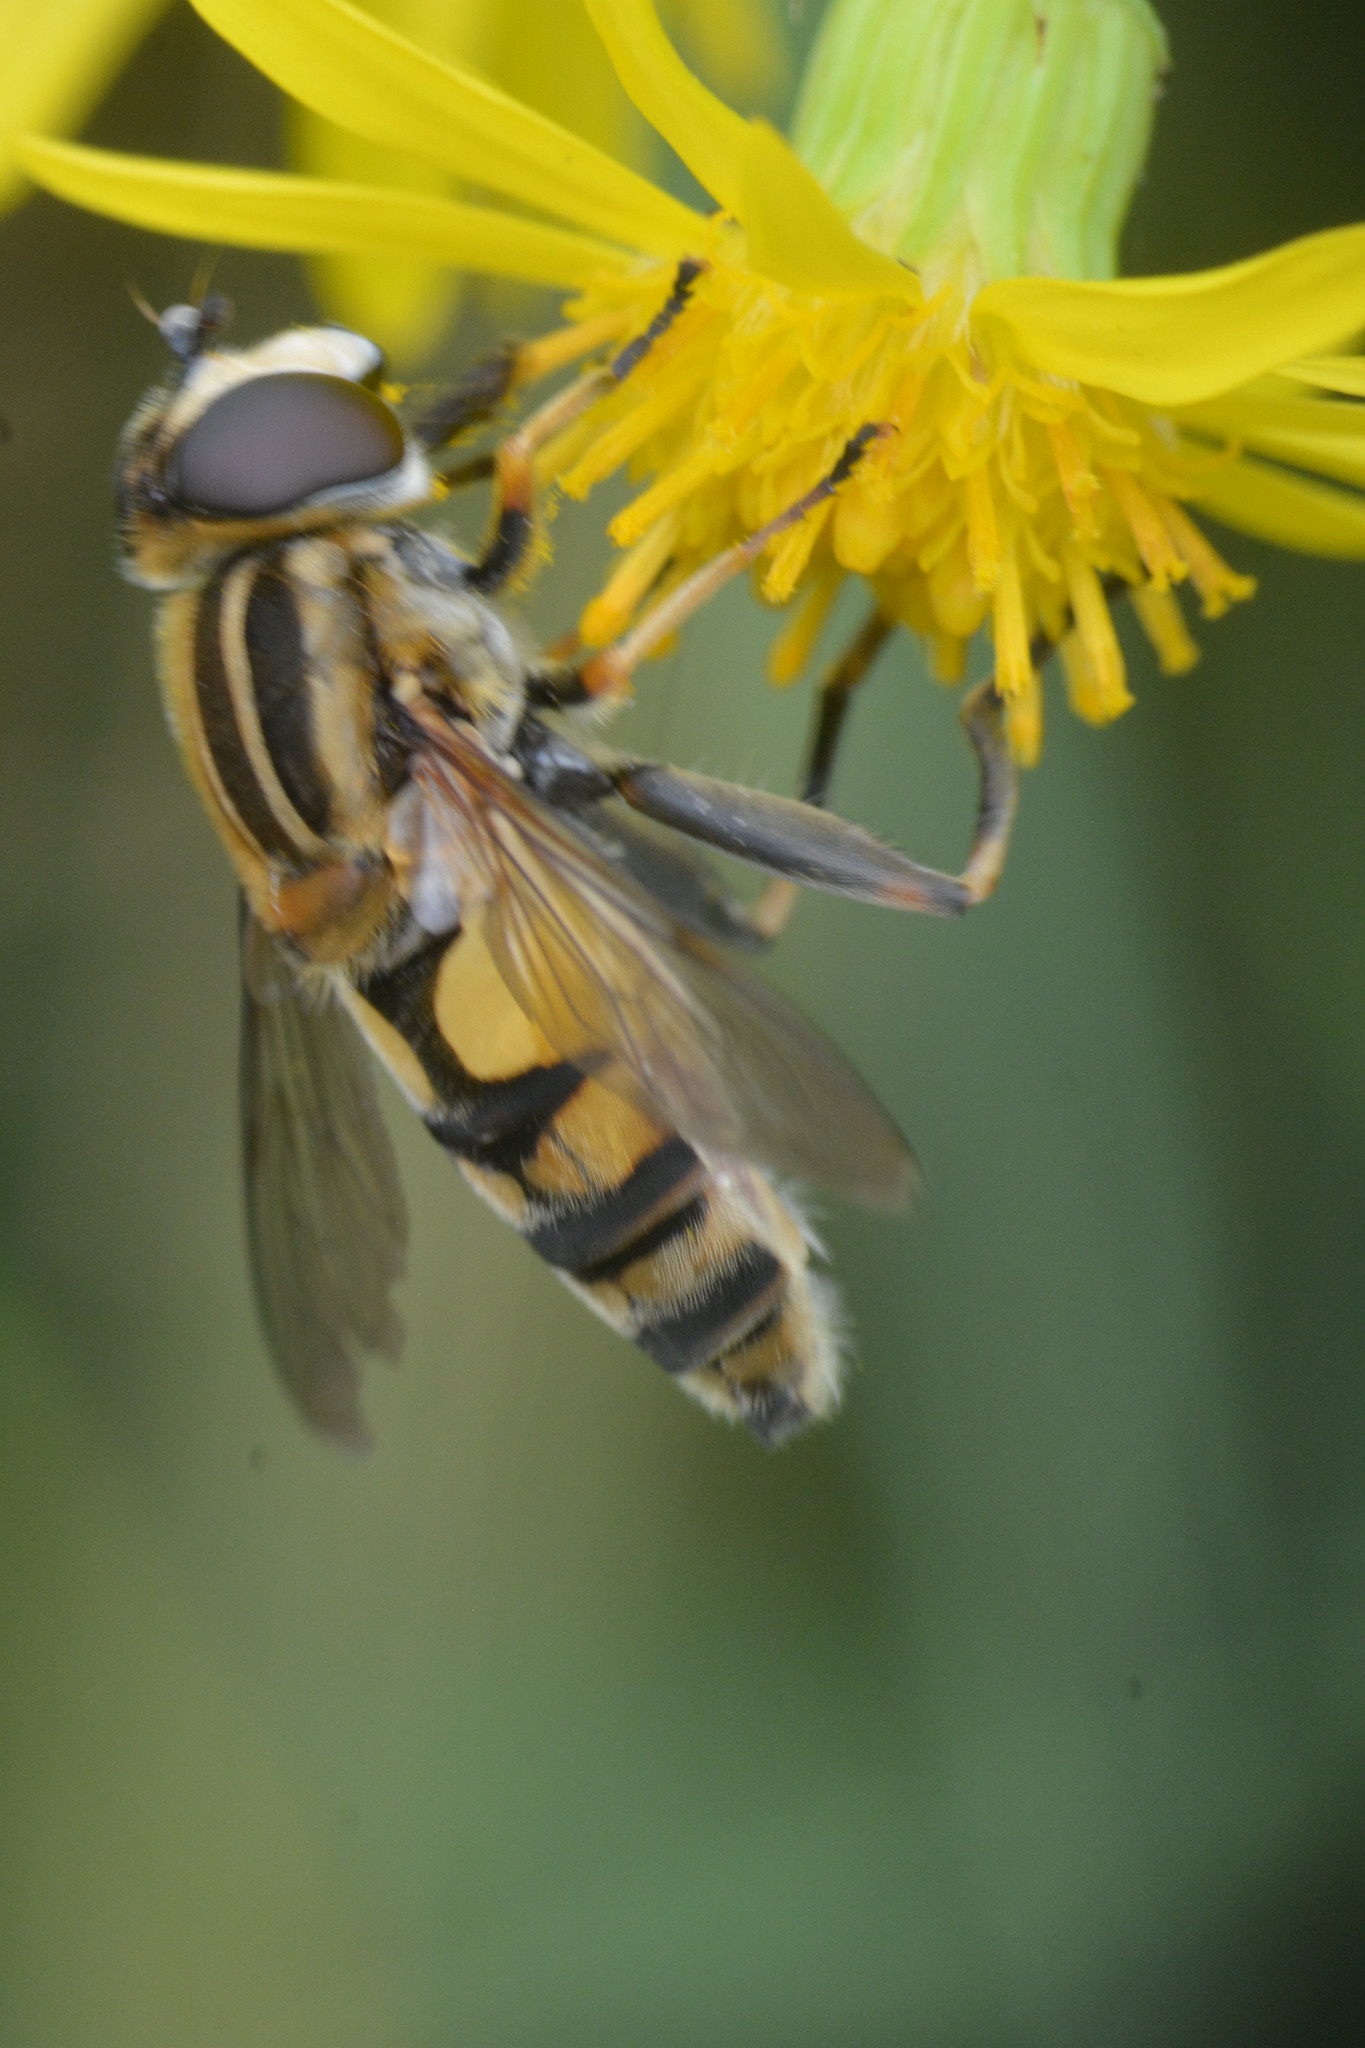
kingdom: Animalia
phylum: Arthropoda
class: Insecta
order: Diptera
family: Syrphidae
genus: Helophilus
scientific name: Helophilus hybridus
